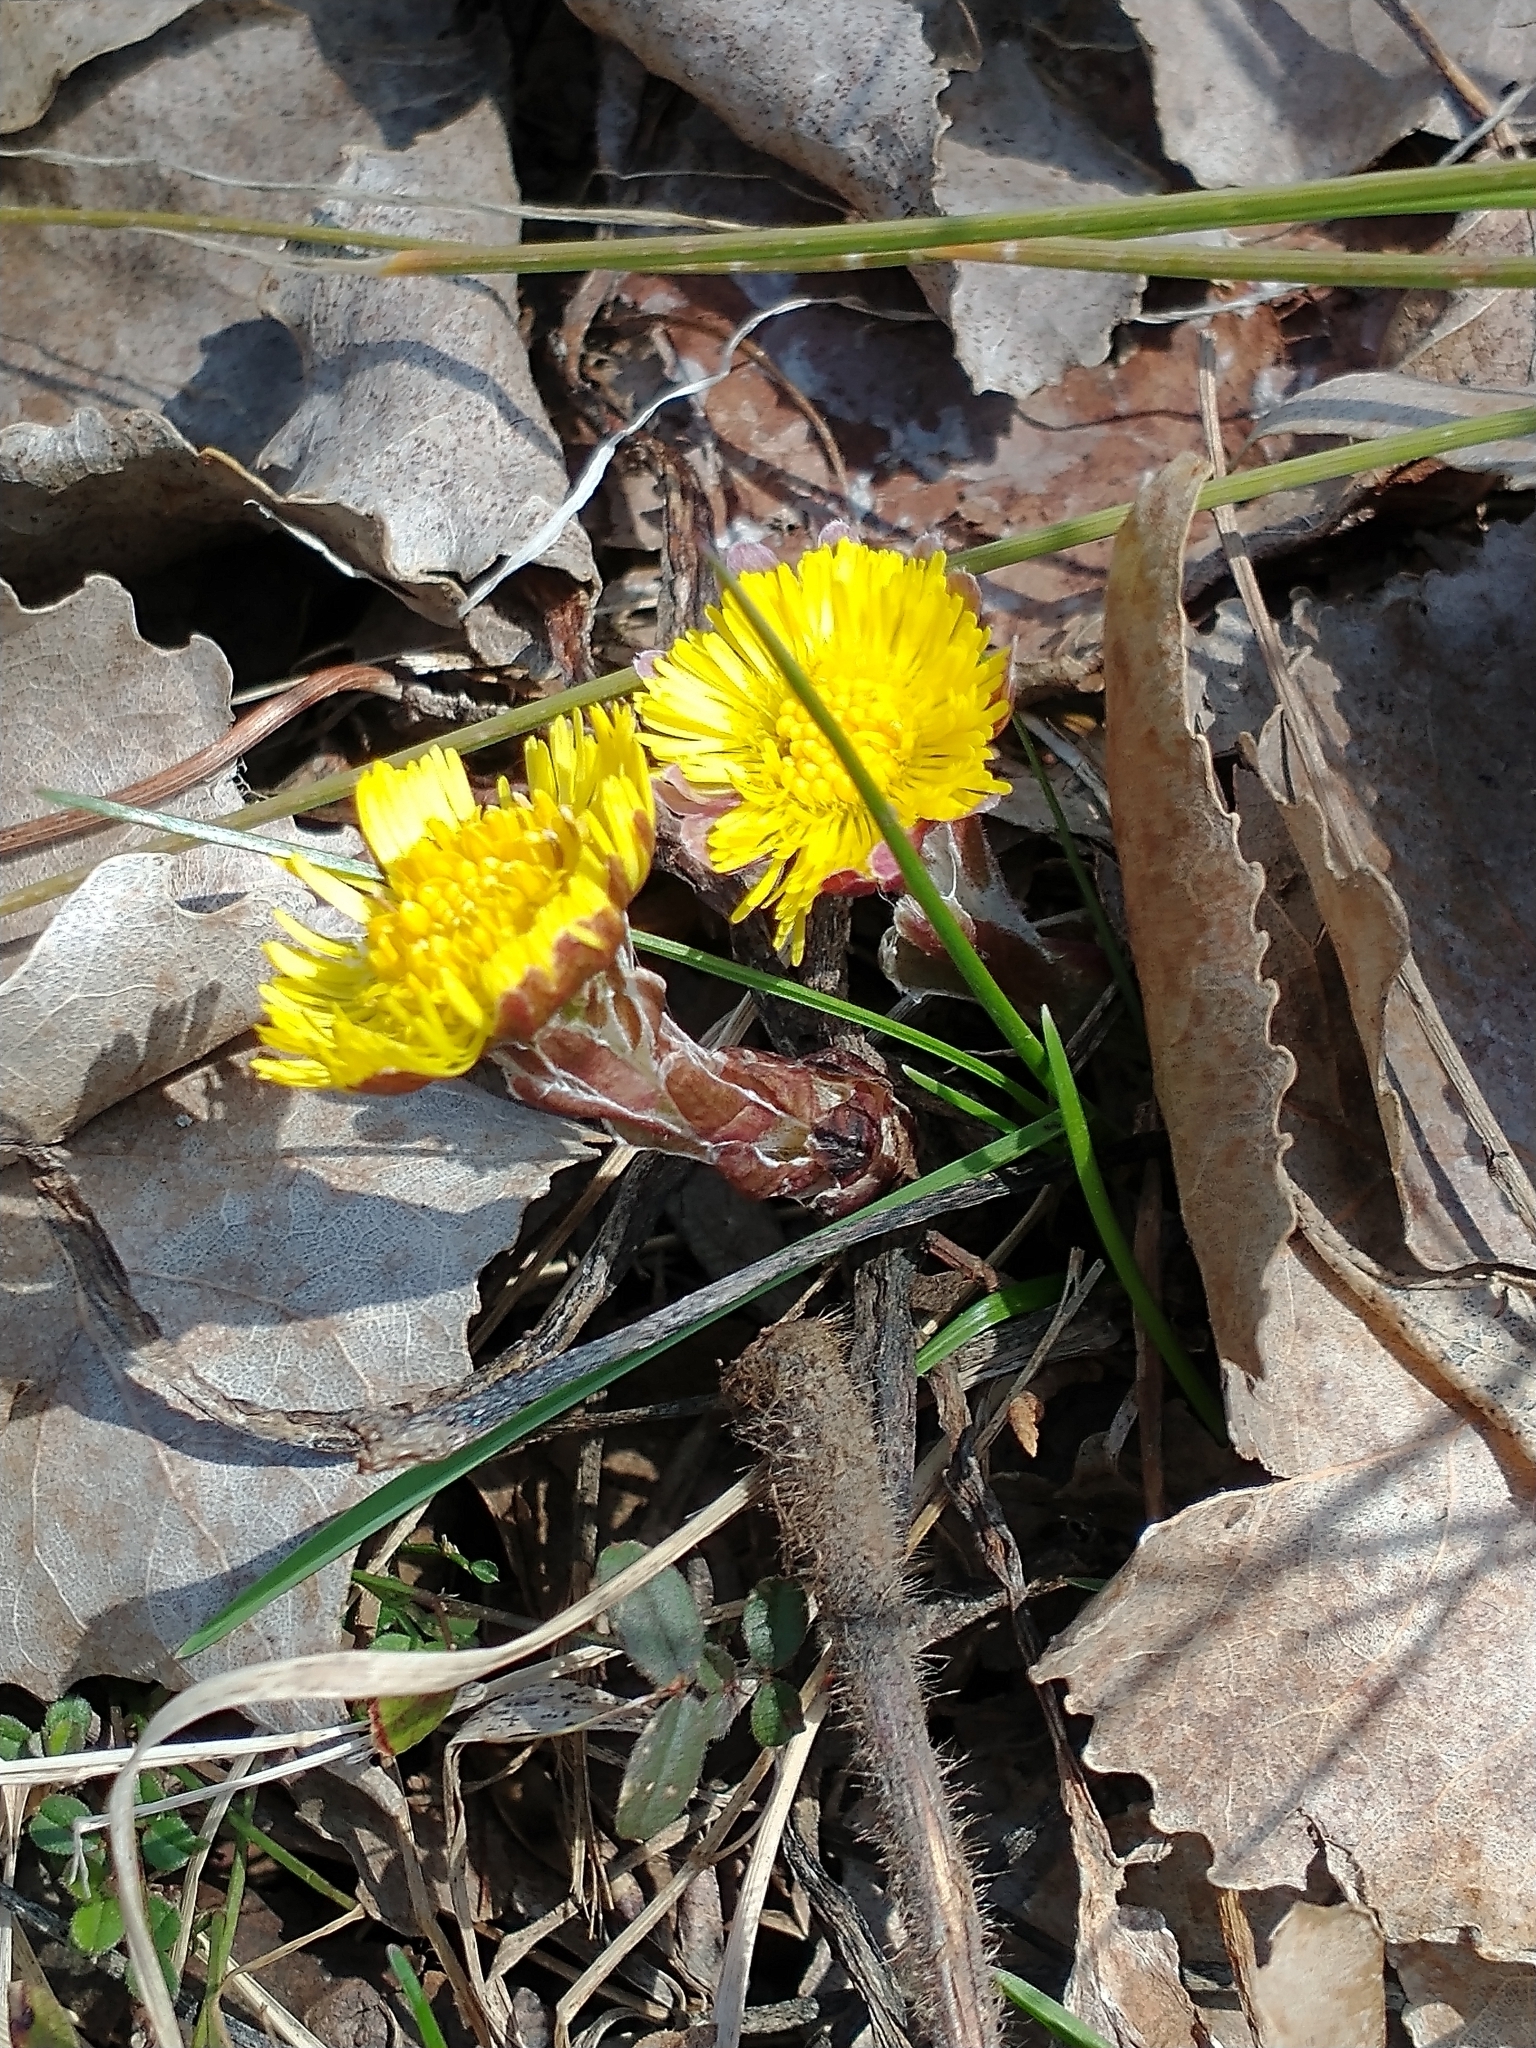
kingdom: Plantae
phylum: Tracheophyta
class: Magnoliopsida
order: Asterales
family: Asteraceae
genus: Tussilago
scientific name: Tussilago farfara
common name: Coltsfoot
